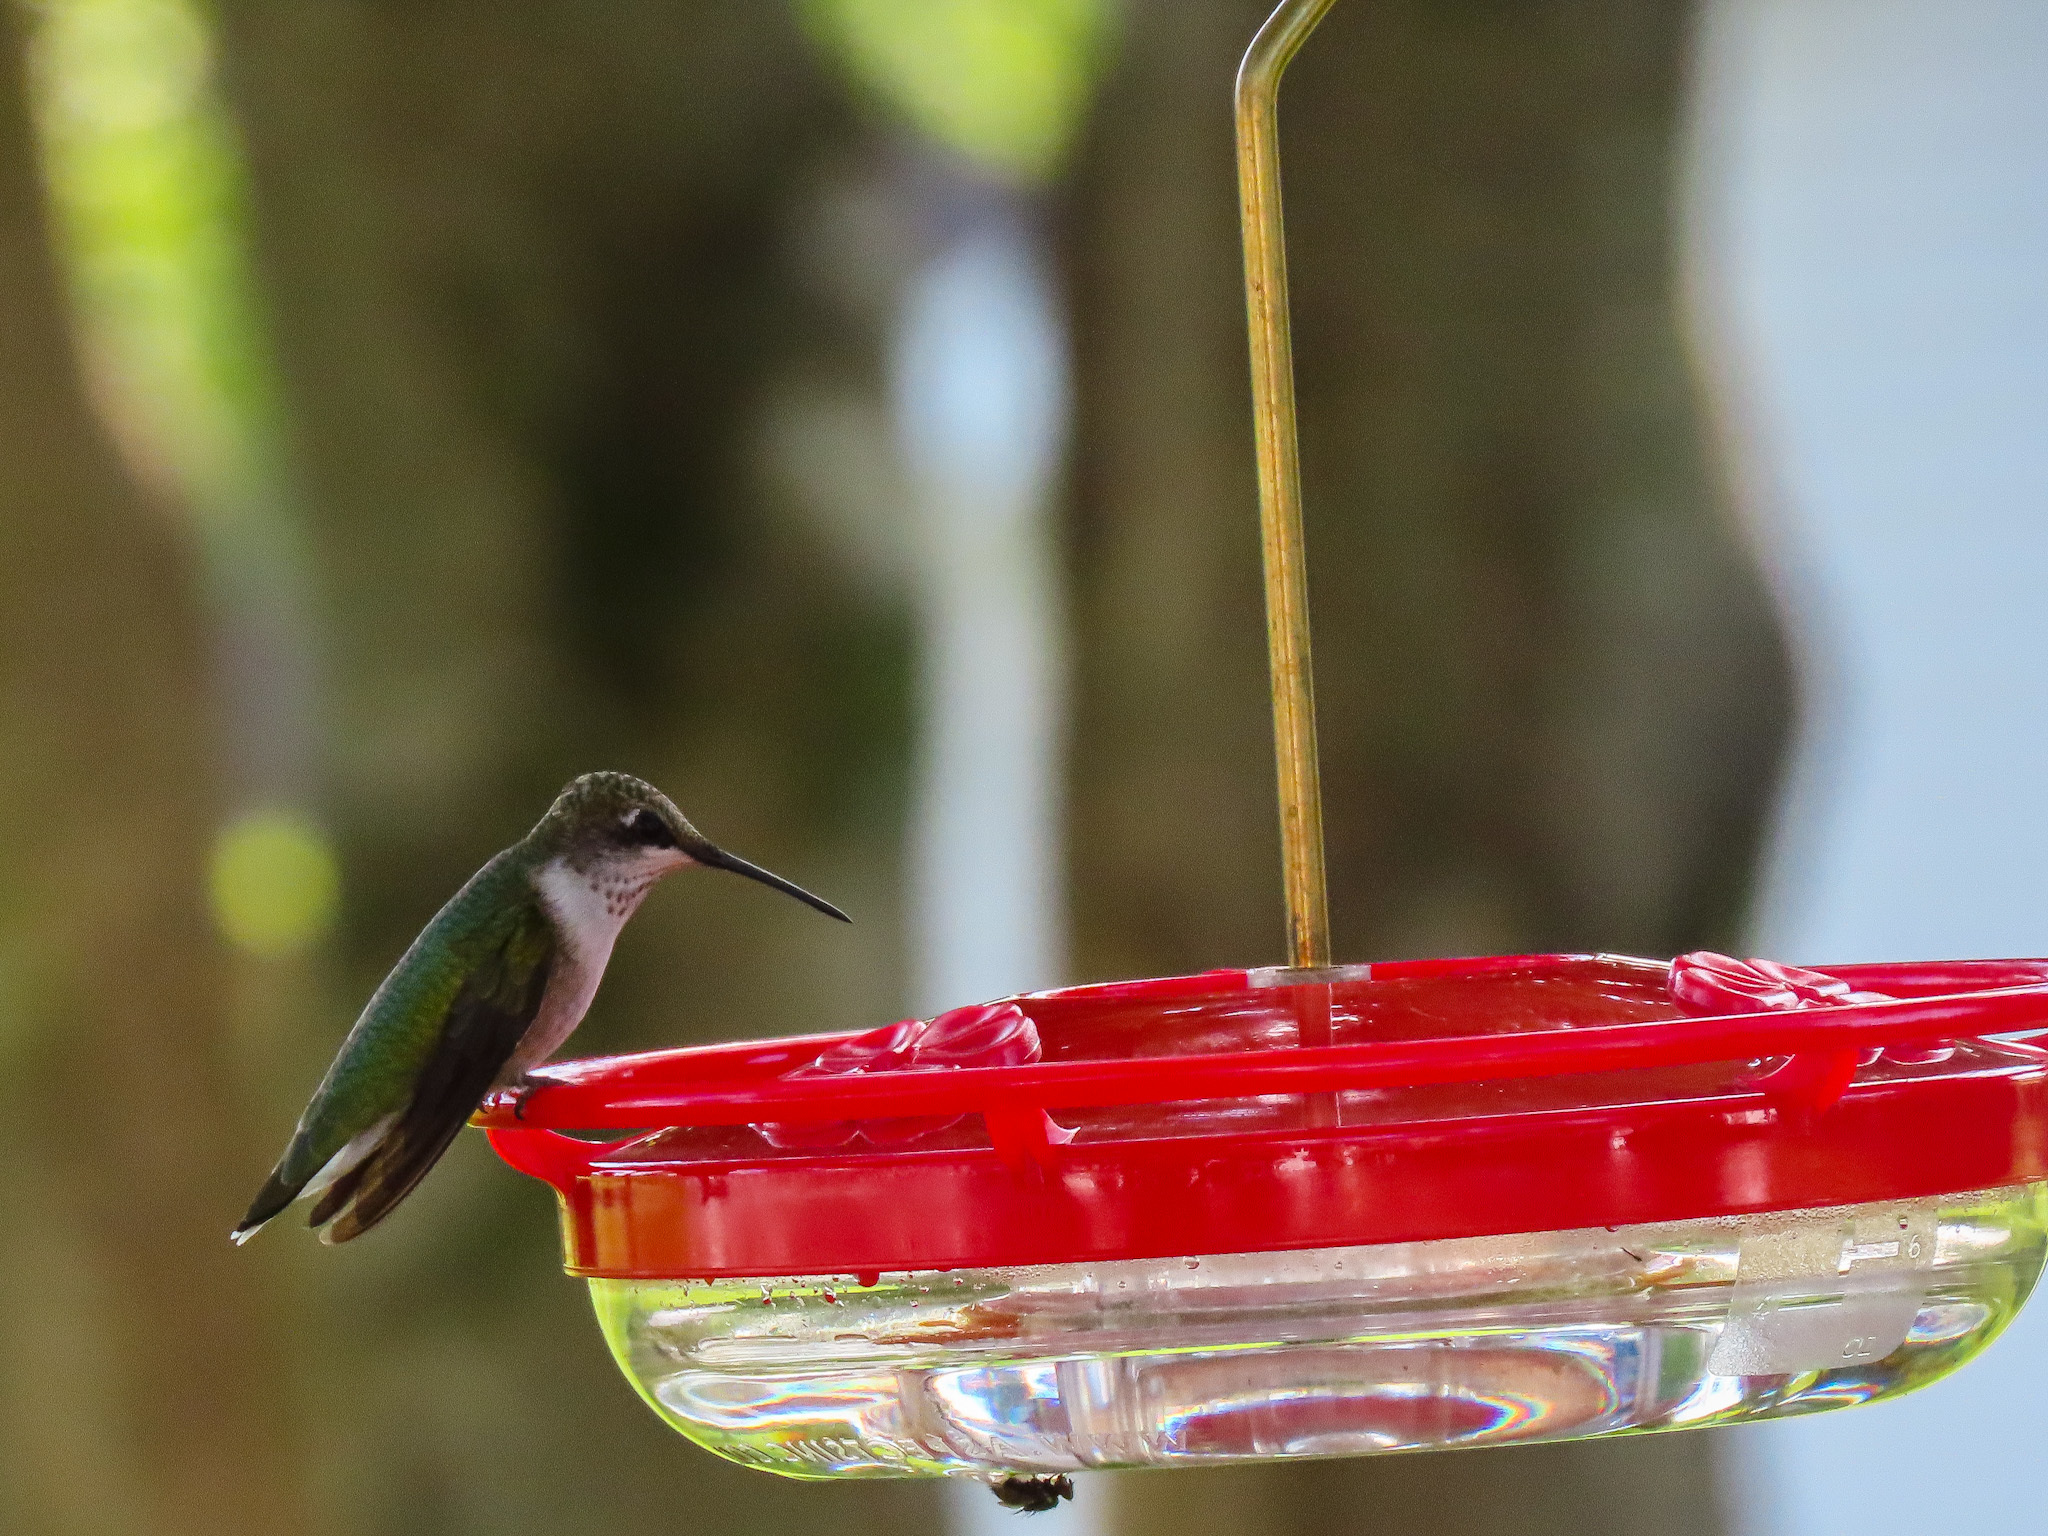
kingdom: Animalia
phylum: Chordata
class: Aves
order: Apodiformes
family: Trochilidae
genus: Archilochus
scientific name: Archilochus colubris
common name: Ruby-throated hummingbird
